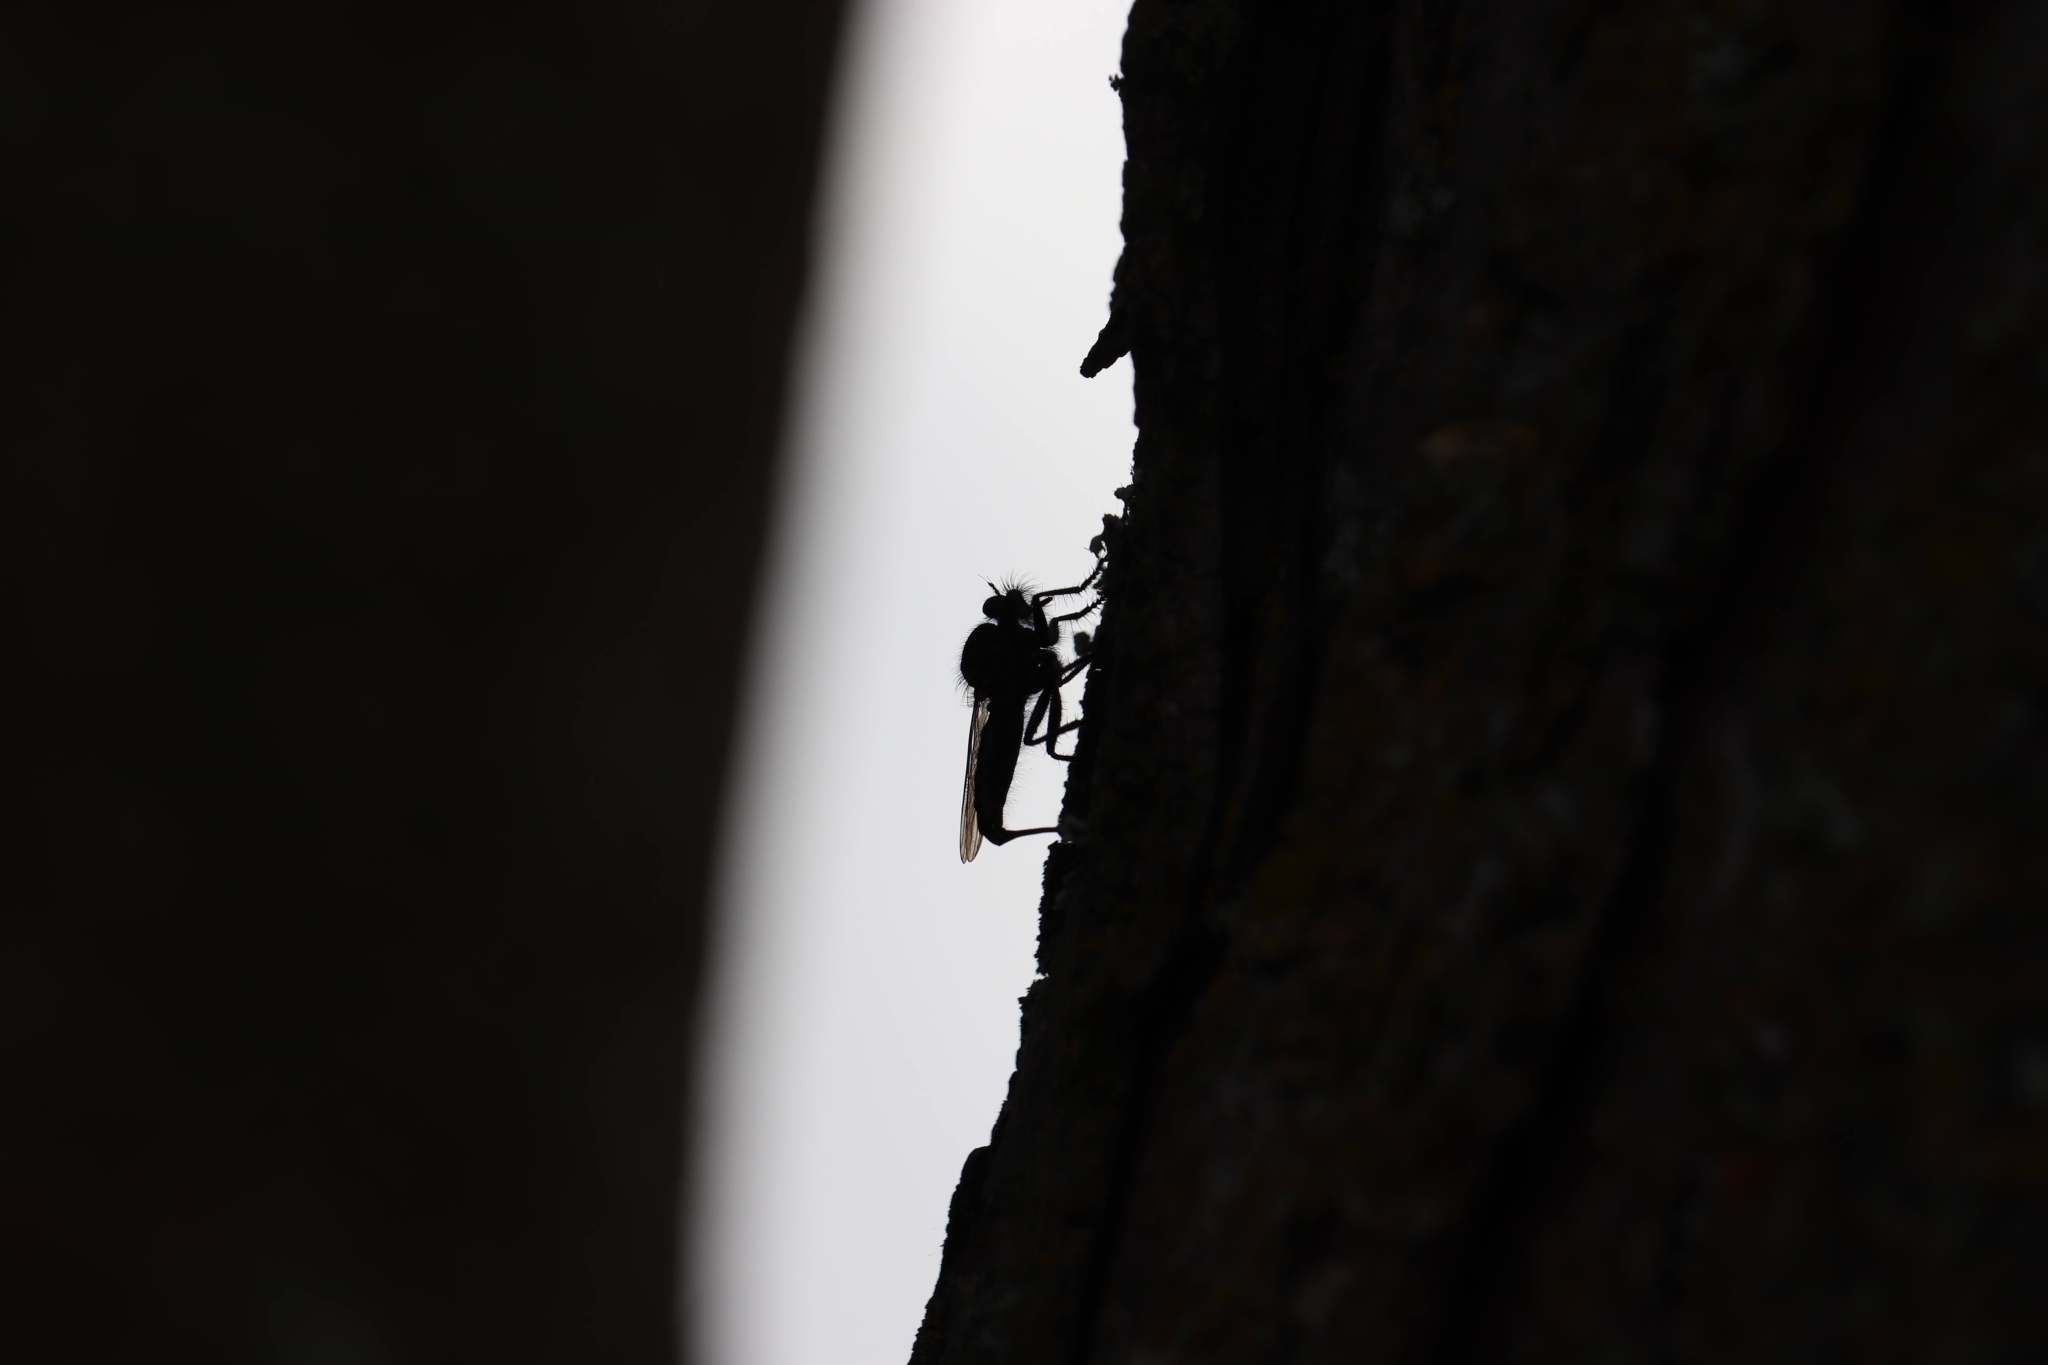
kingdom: Animalia
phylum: Arthropoda
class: Insecta
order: Diptera
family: Asilidae
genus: Efferia
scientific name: Efferia aestuans
